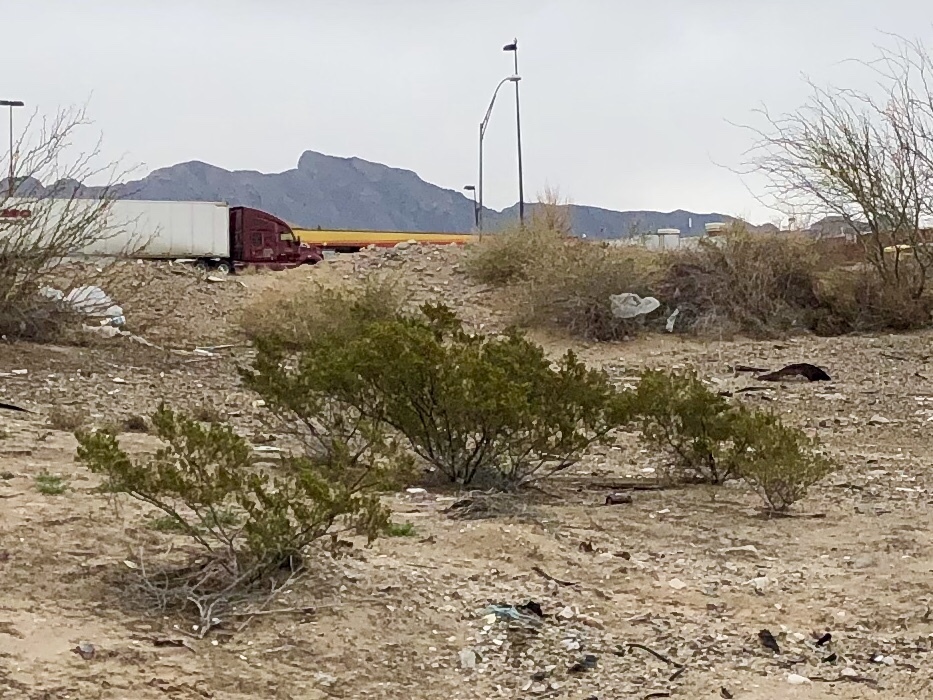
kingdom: Plantae
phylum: Tracheophyta
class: Magnoliopsida
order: Zygophyllales
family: Zygophyllaceae
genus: Larrea
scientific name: Larrea tridentata
